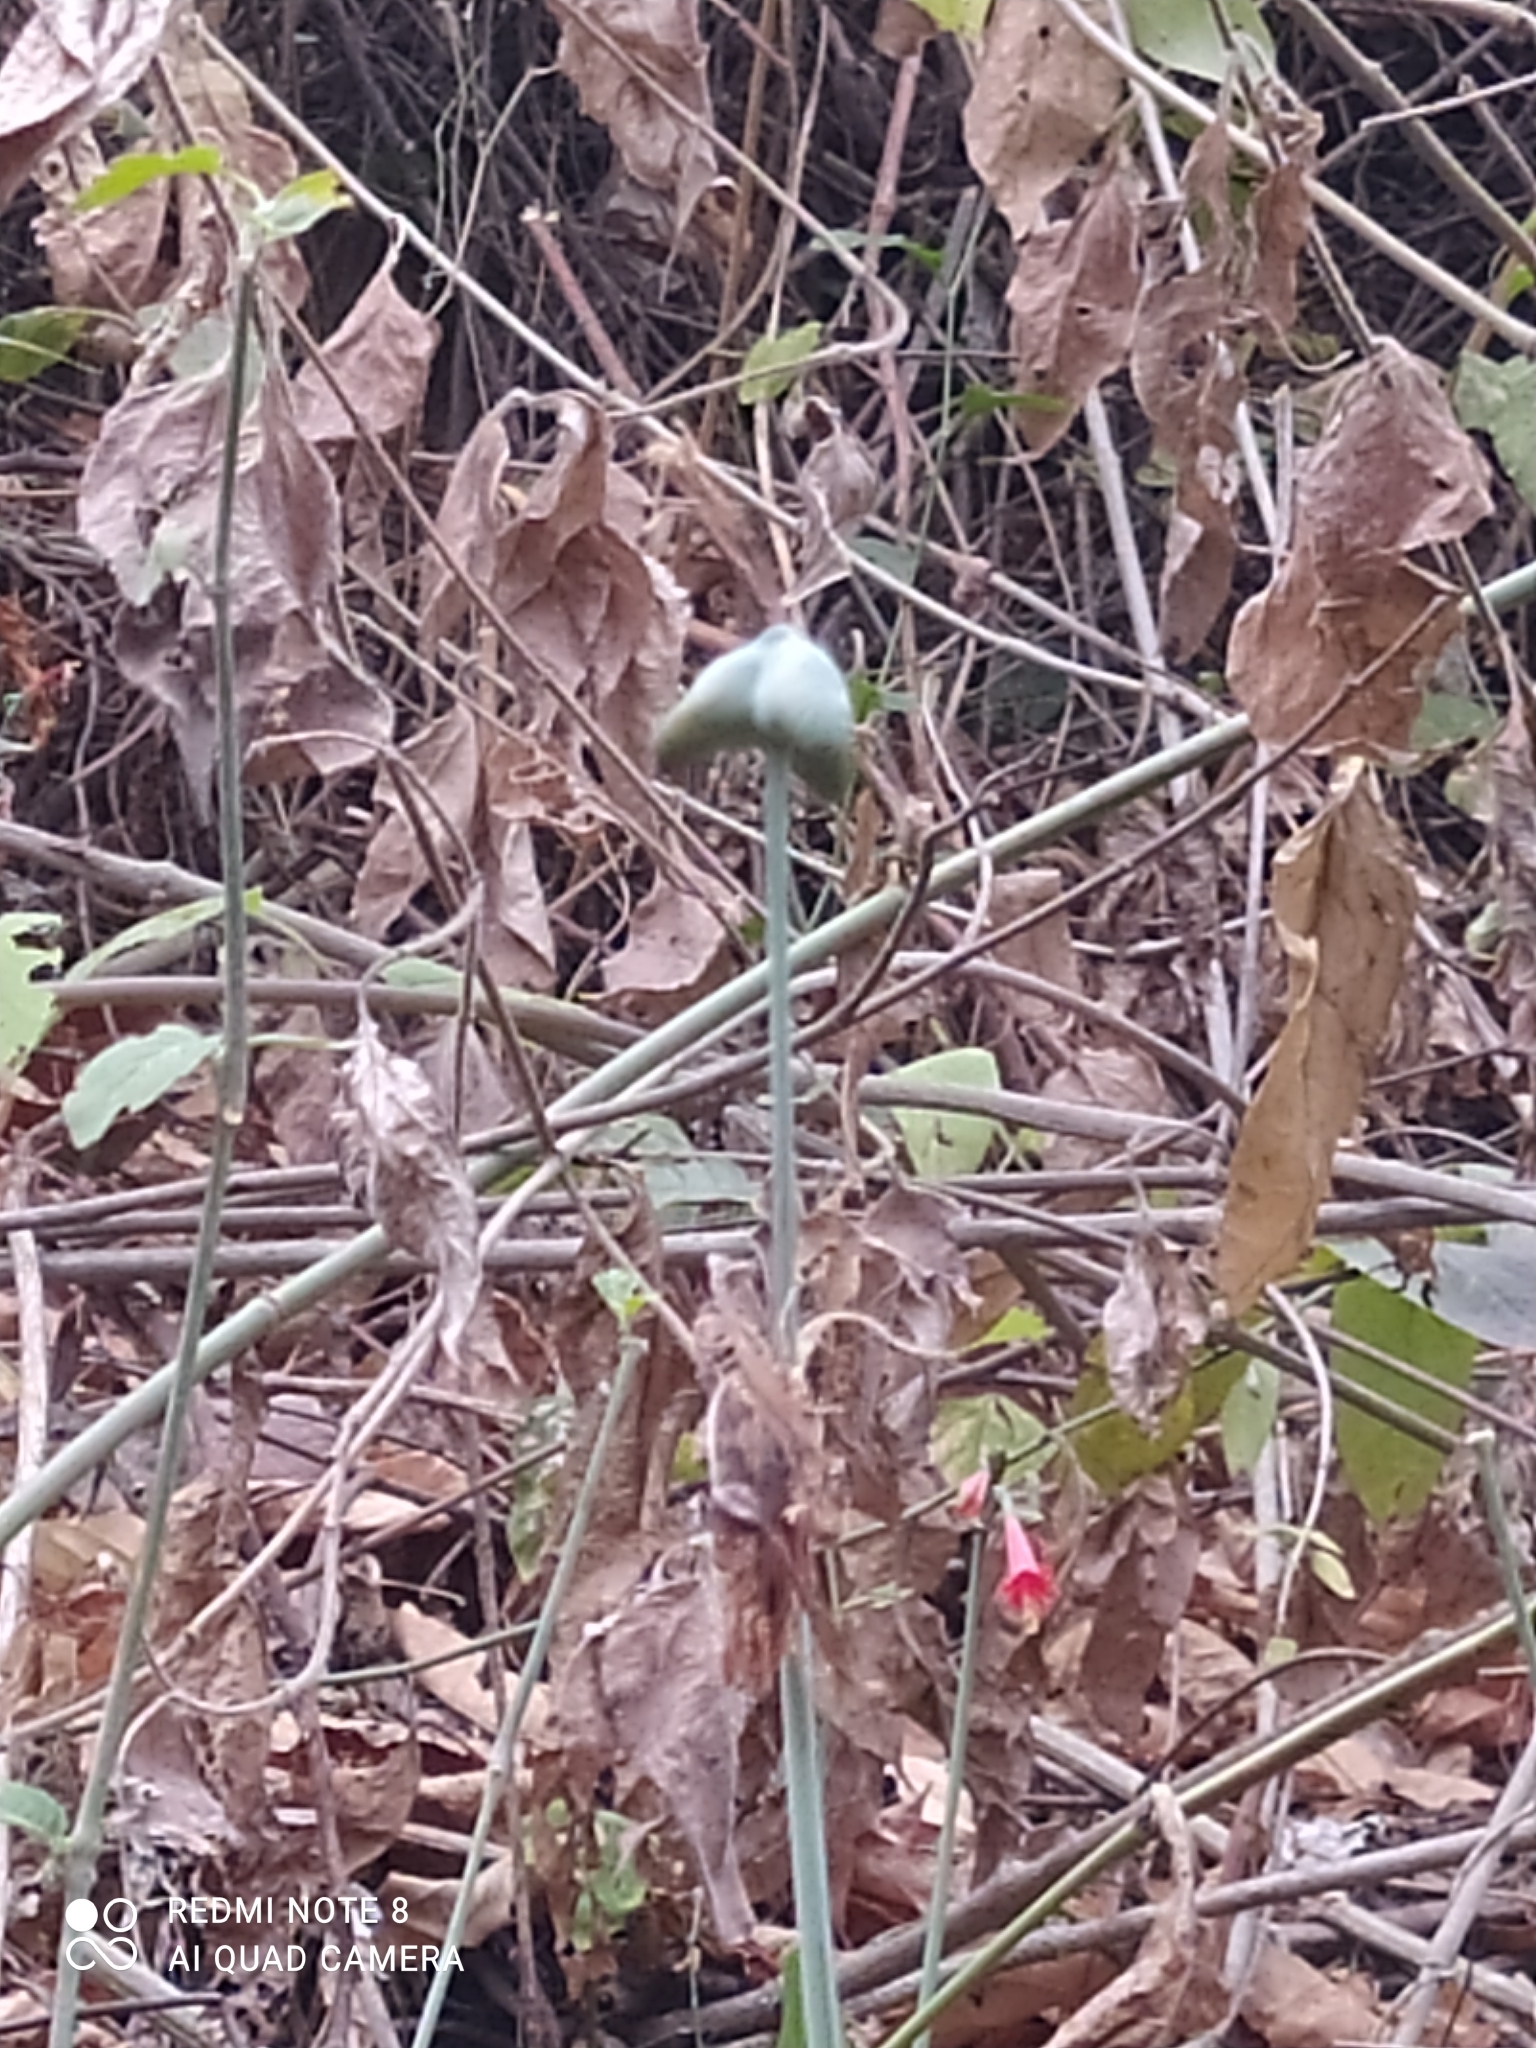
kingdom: Plantae
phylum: Tracheophyta
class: Liliopsida
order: Asparagales
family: Amaryllidaceae
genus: Eucrosia
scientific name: Eucrosia stricklandii
